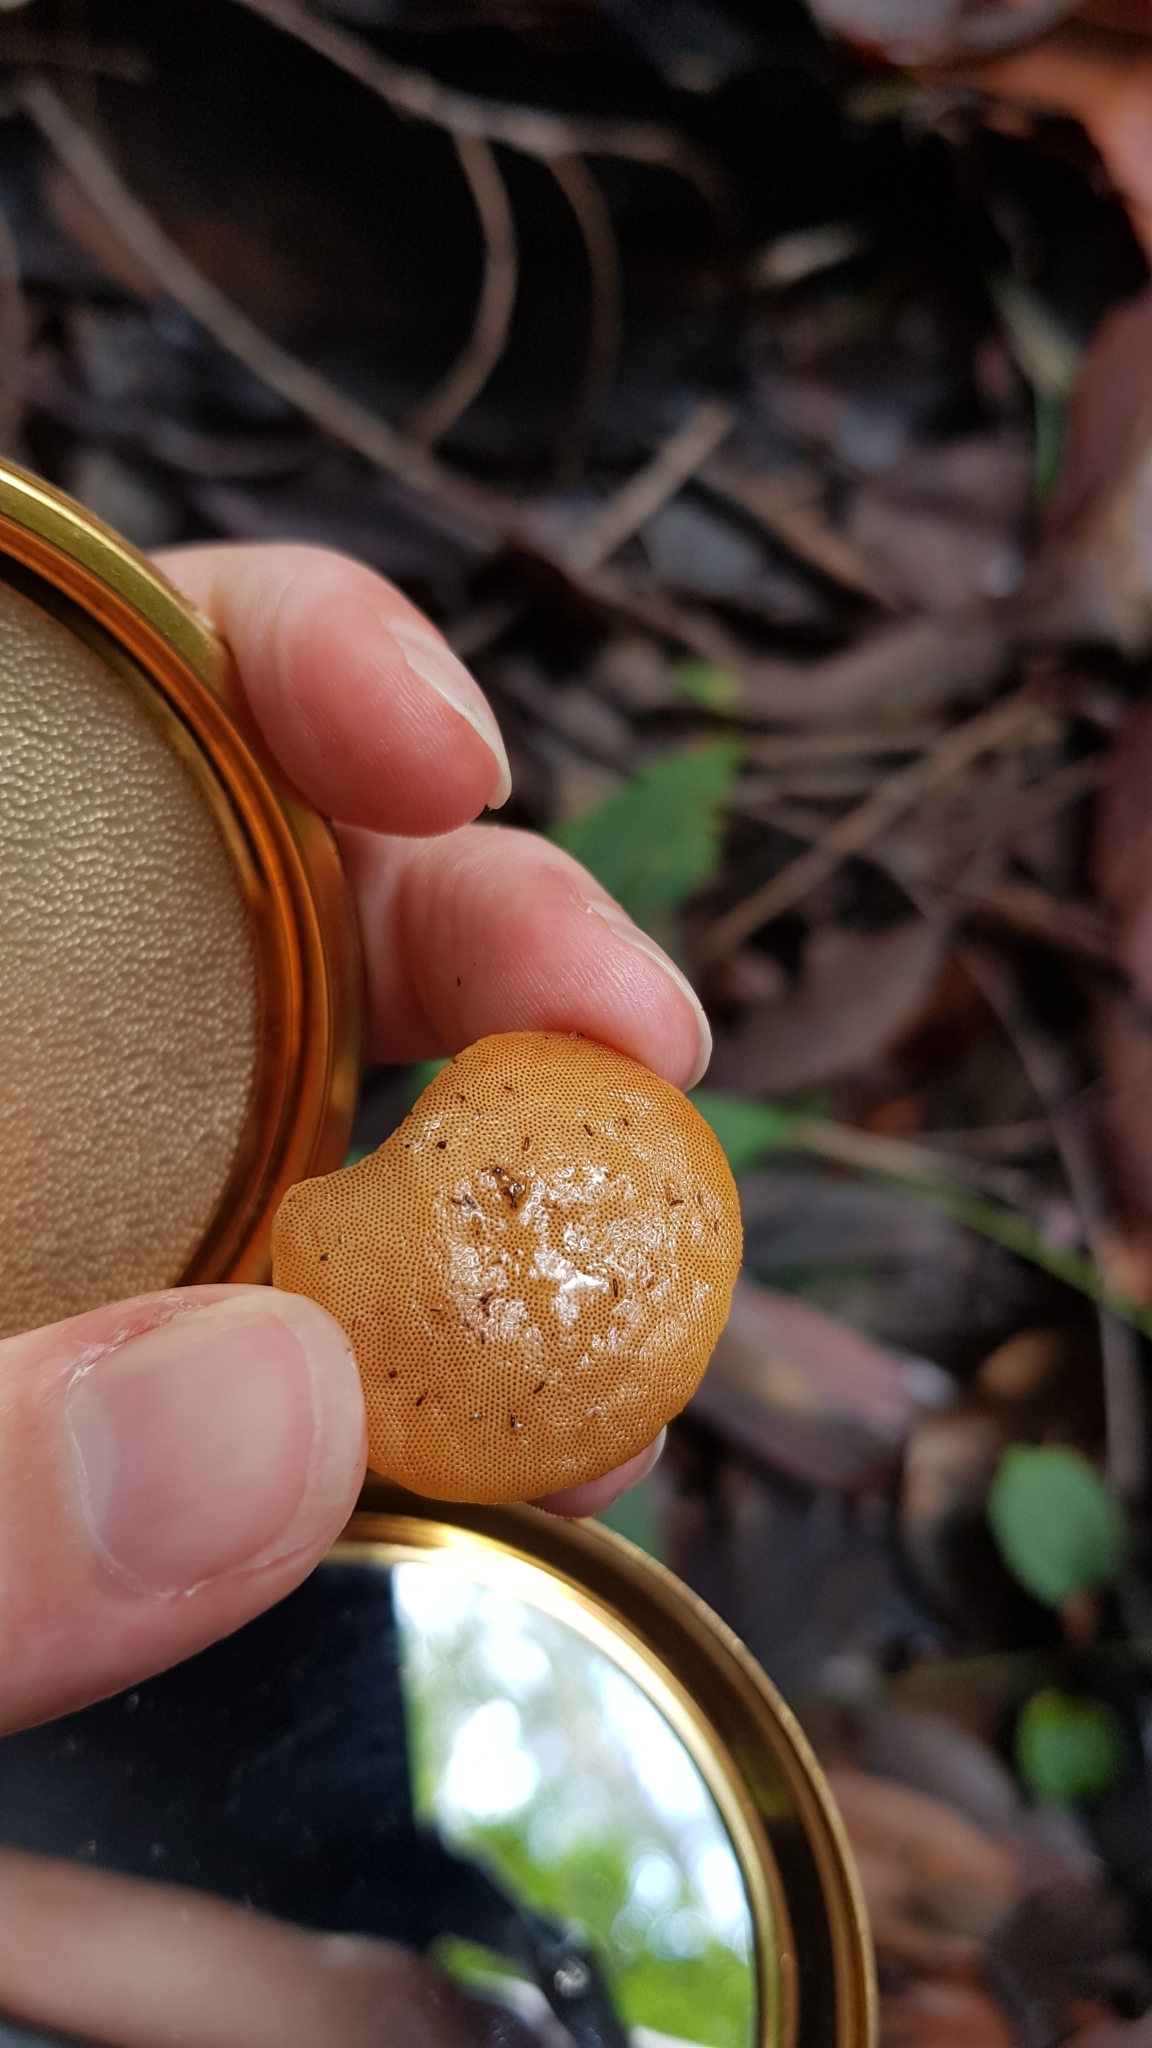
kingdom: Fungi
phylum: Basidiomycota
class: Agaricomycetes
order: Polyporales
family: Polyporaceae
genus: Truncospora
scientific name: Truncospora ochroleuca
